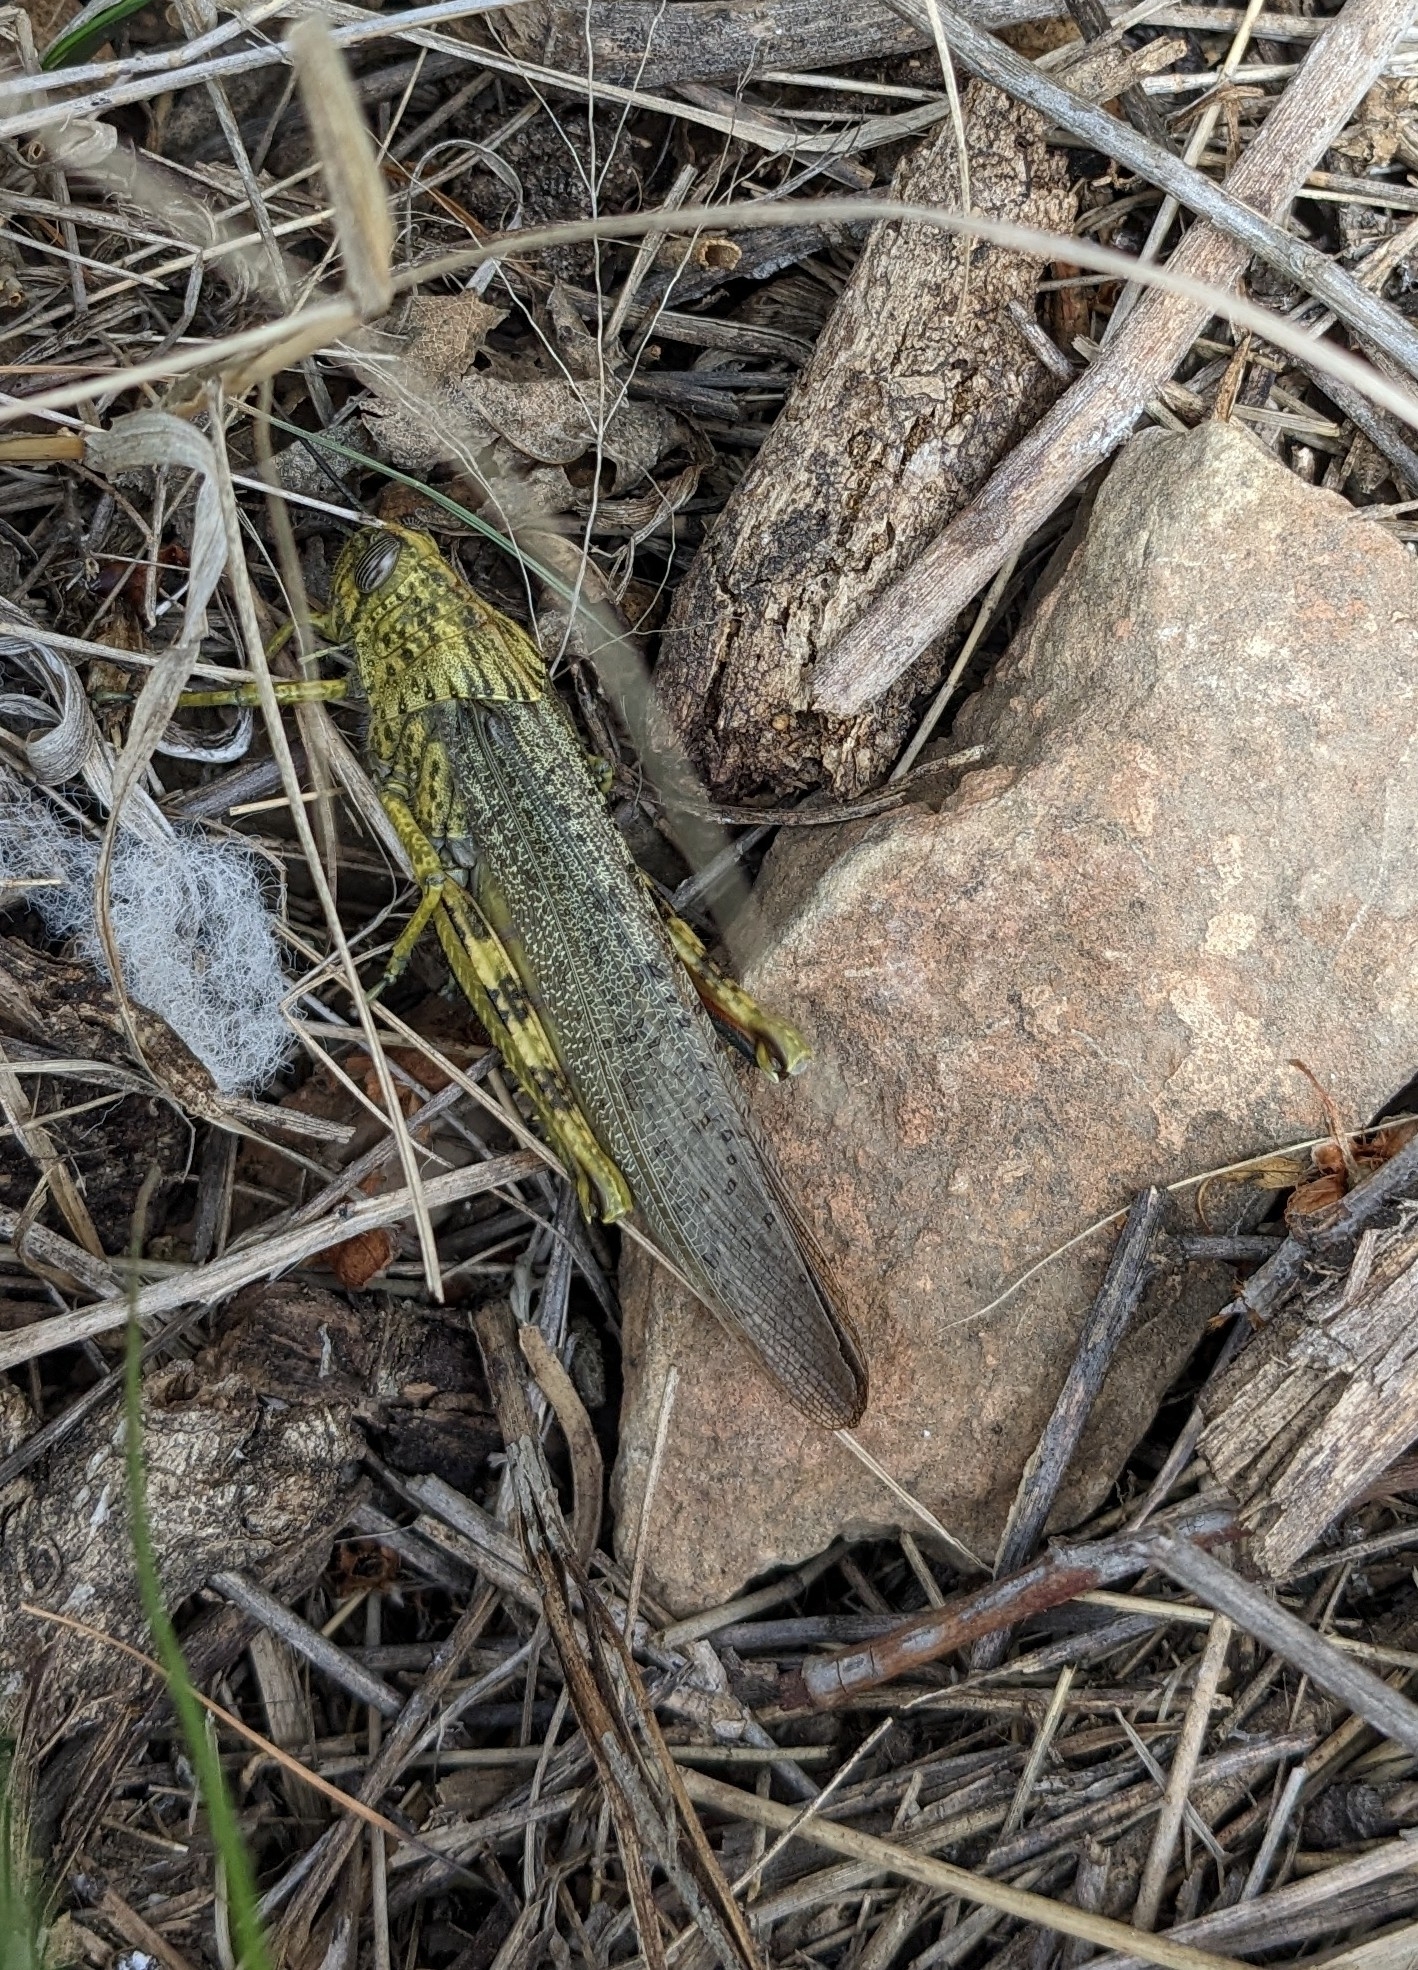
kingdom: Animalia
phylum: Arthropoda
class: Insecta
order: Orthoptera
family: Acrididae
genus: Anacridium
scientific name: Anacridium aegyptium
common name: Egyptian grasshopper
